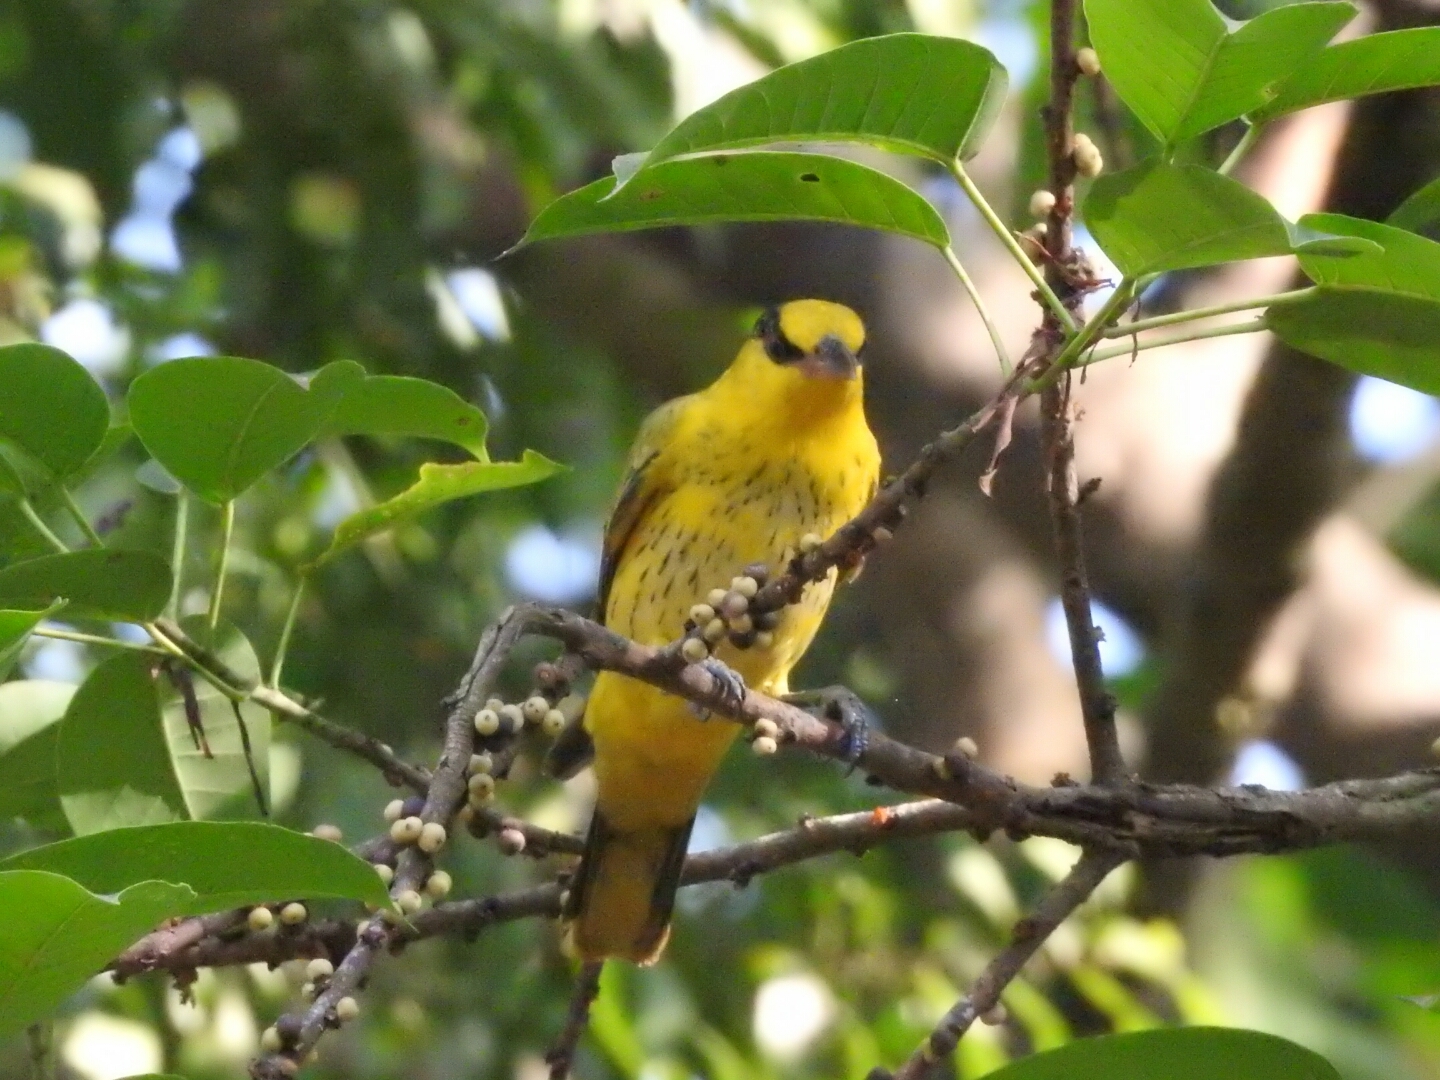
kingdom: Animalia
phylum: Chordata
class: Aves
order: Passeriformes
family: Oriolidae
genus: Oriolus
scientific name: Oriolus chinensis
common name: Black-naped oriole
